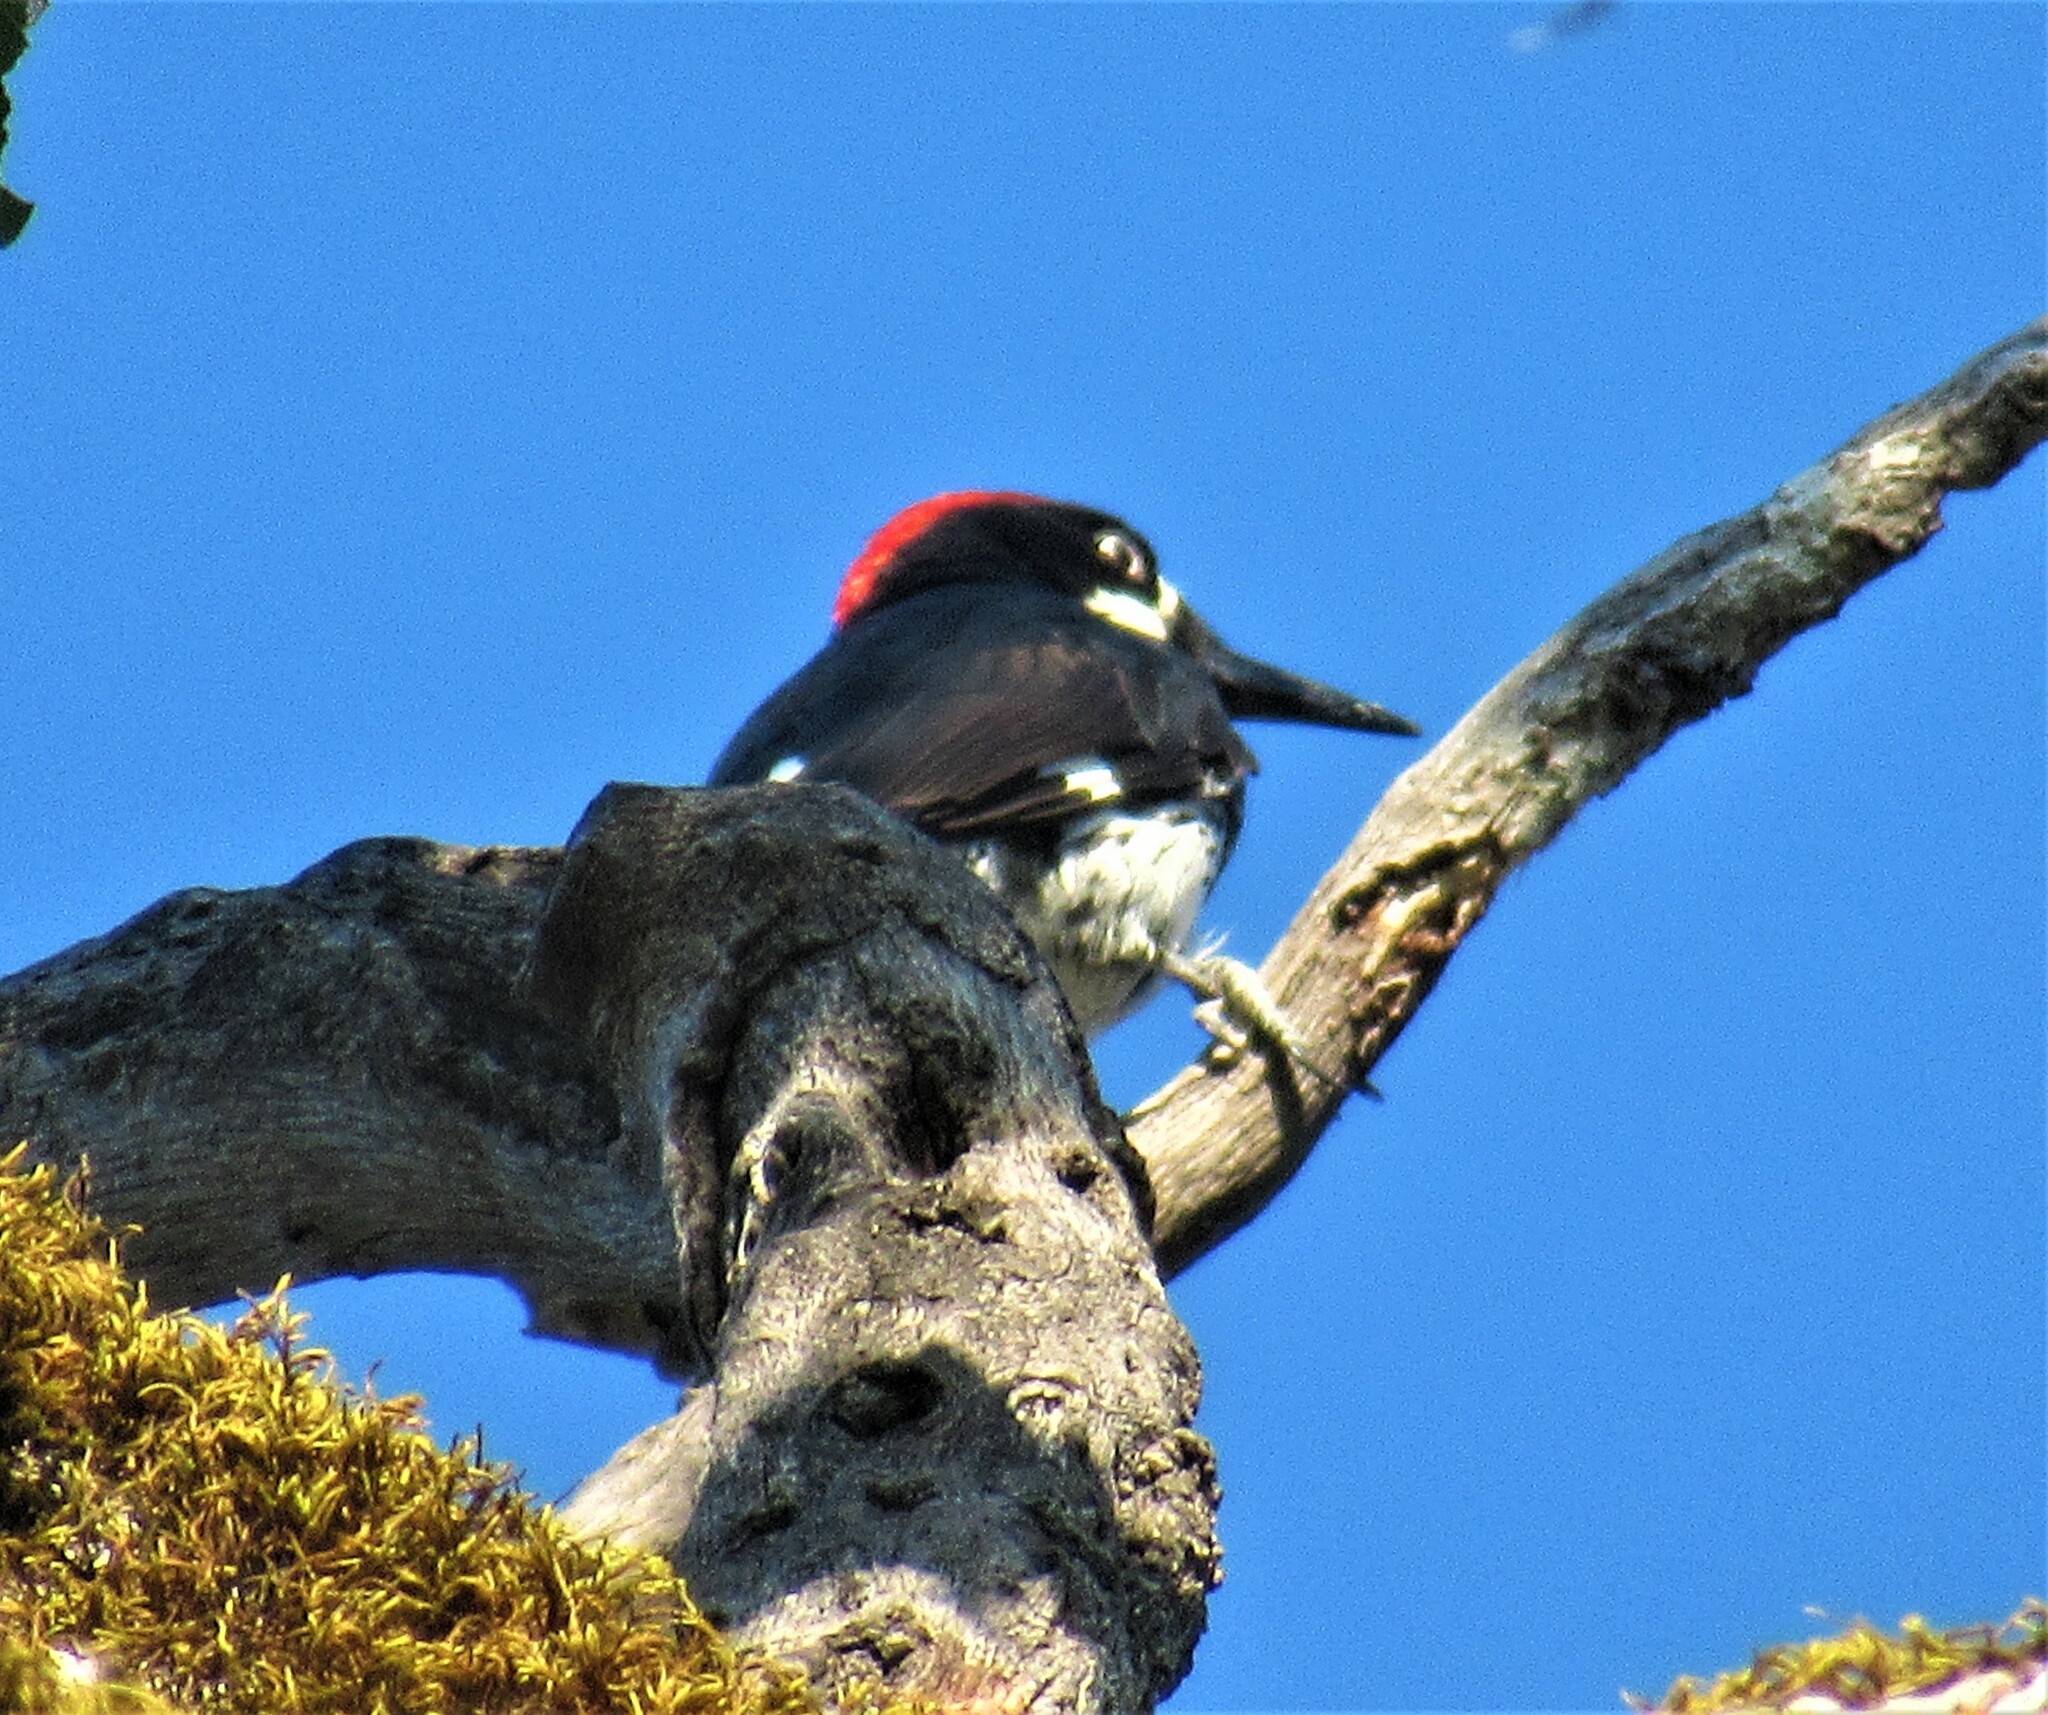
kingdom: Animalia
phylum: Chordata
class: Aves
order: Piciformes
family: Picidae
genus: Melanerpes
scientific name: Melanerpes formicivorus
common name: Acorn woodpecker
